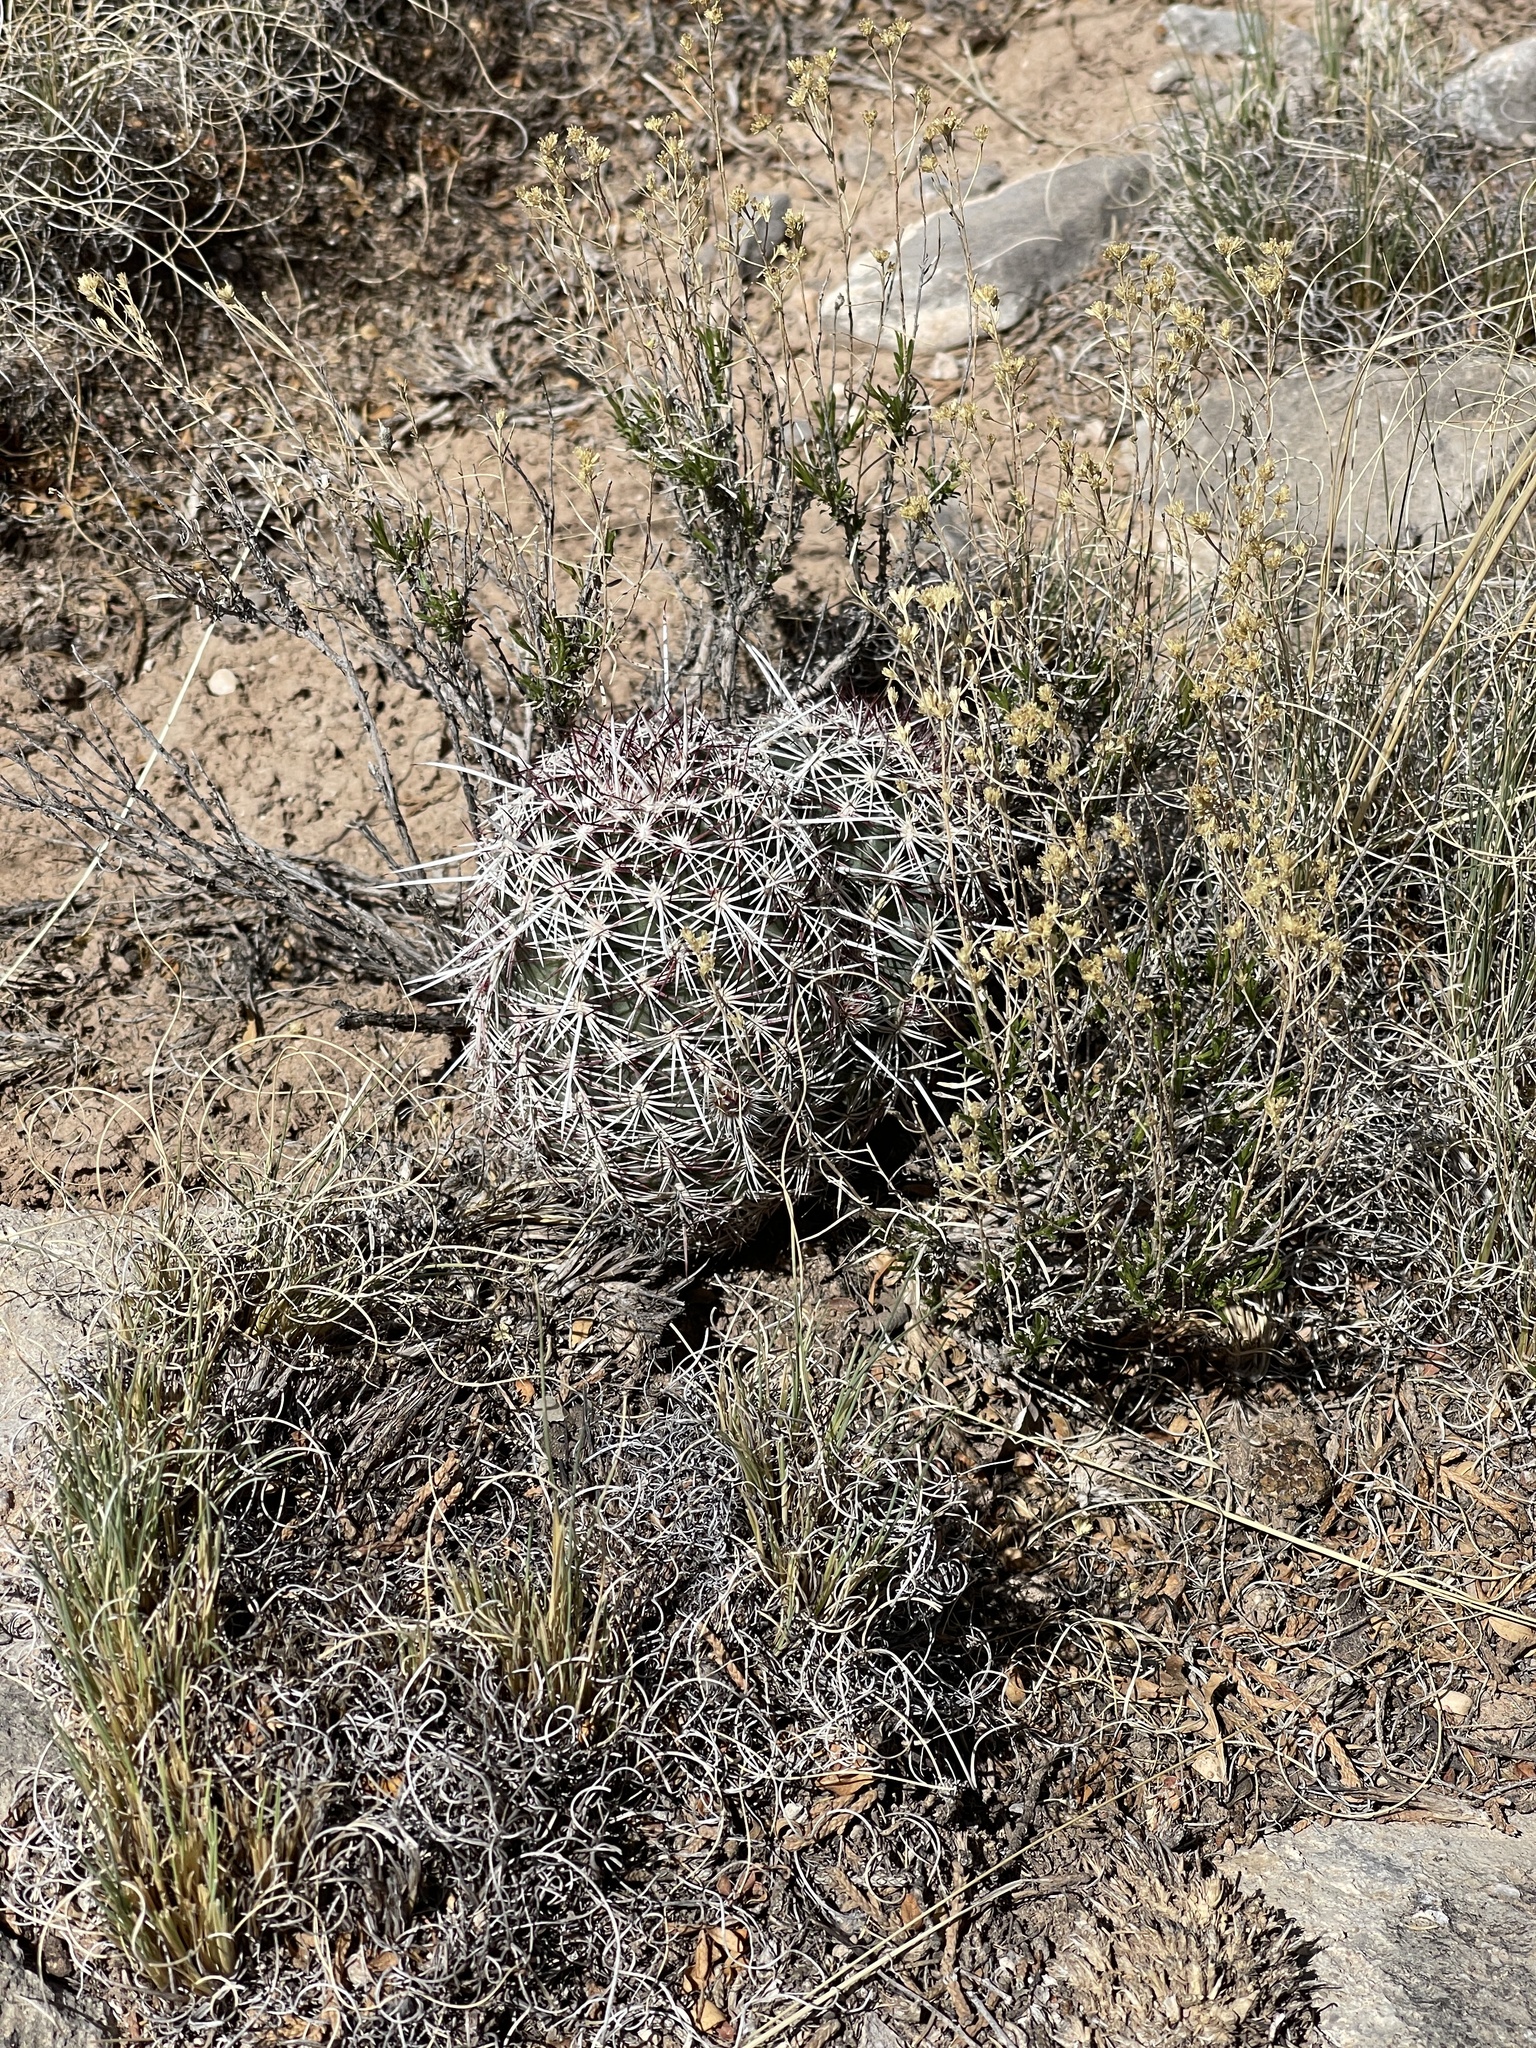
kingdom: Plantae
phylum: Tracheophyta
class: Magnoliopsida
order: Caryophyllales
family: Cactaceae
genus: Echinocereus
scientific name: Echinocereus viridiflorus
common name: Nylon hedgehog cactus
